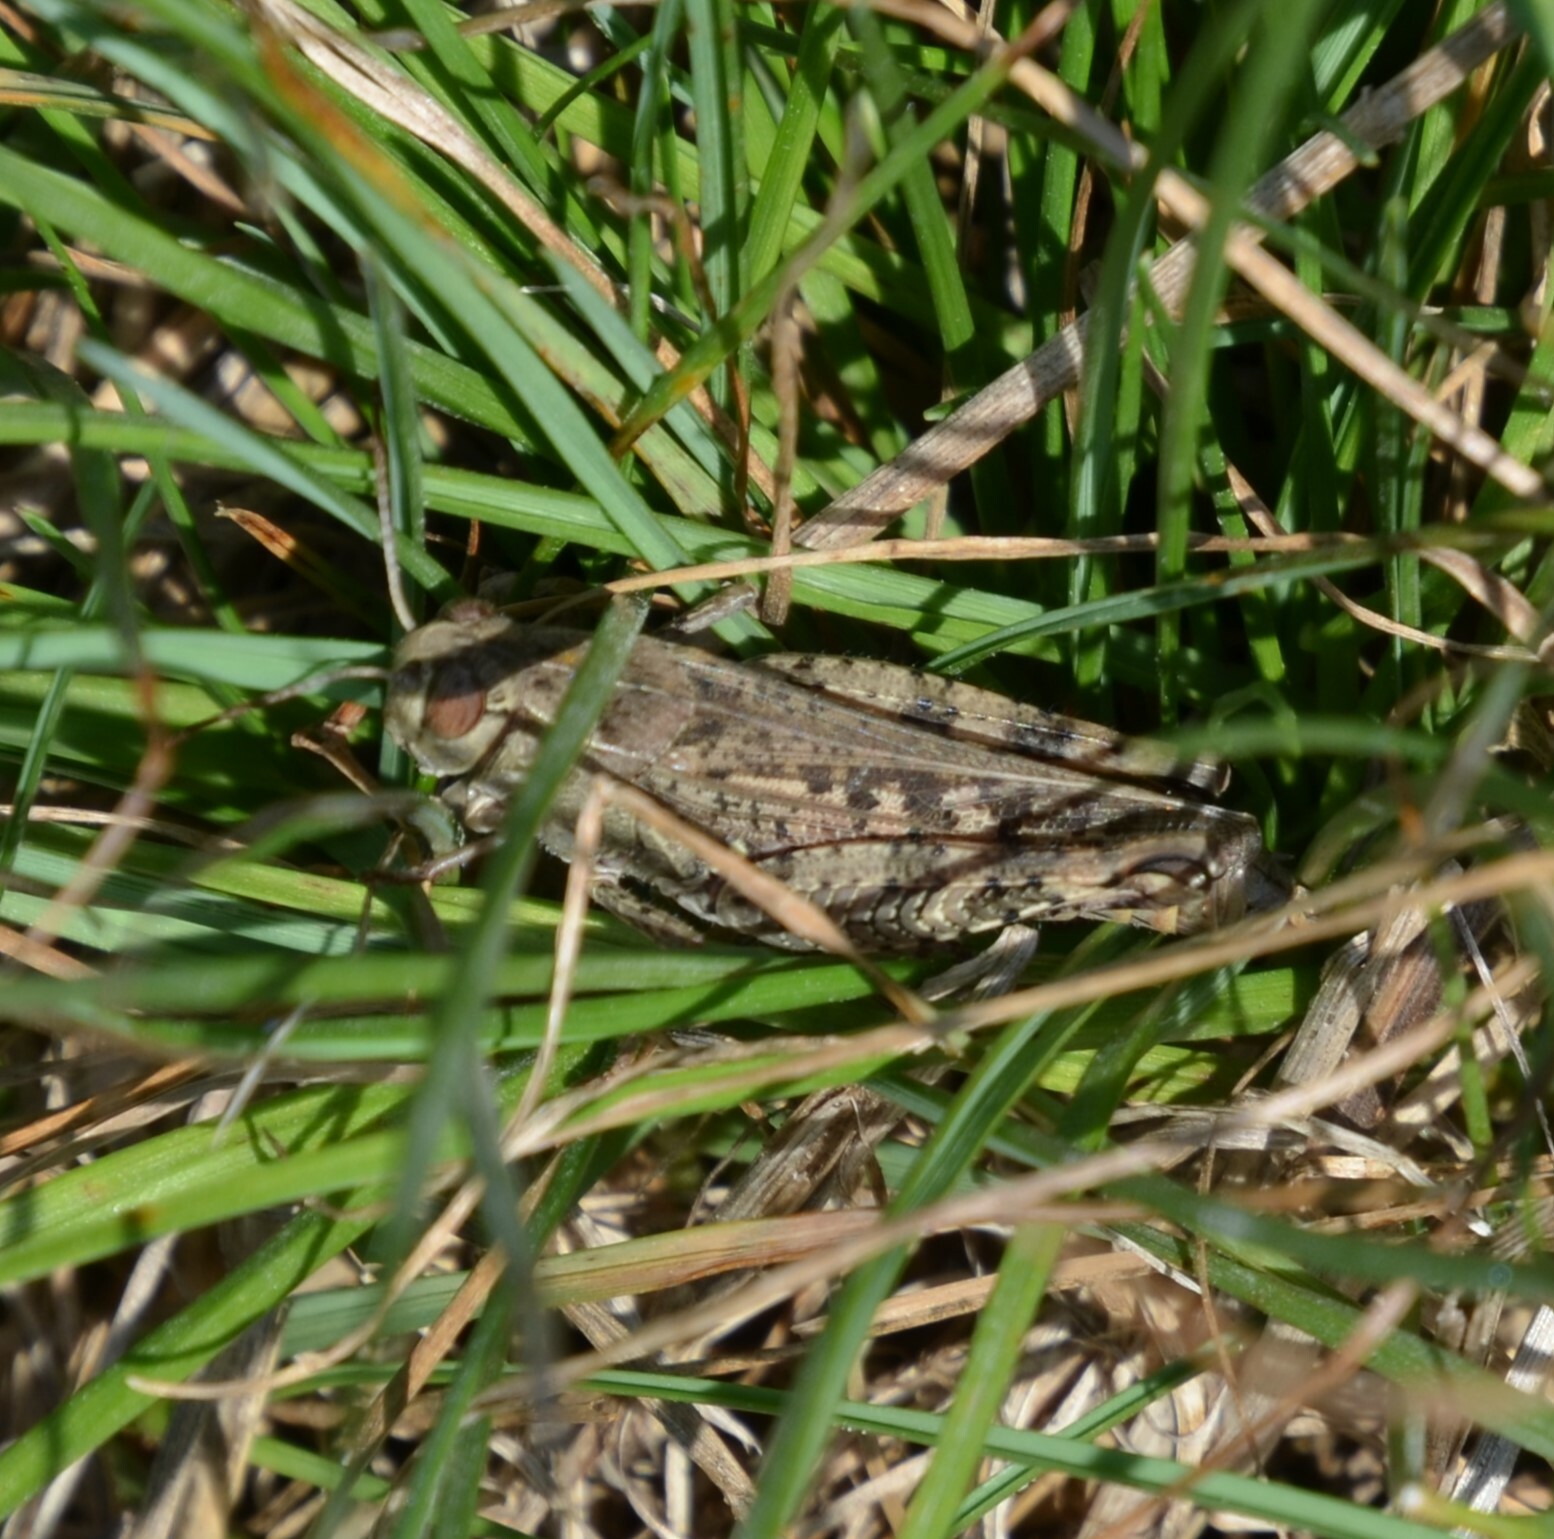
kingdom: Animalia
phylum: Arthropoda
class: Insecta
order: Orthoptera
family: Acrididae
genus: Calliptamus
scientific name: Calliptamus italicus
